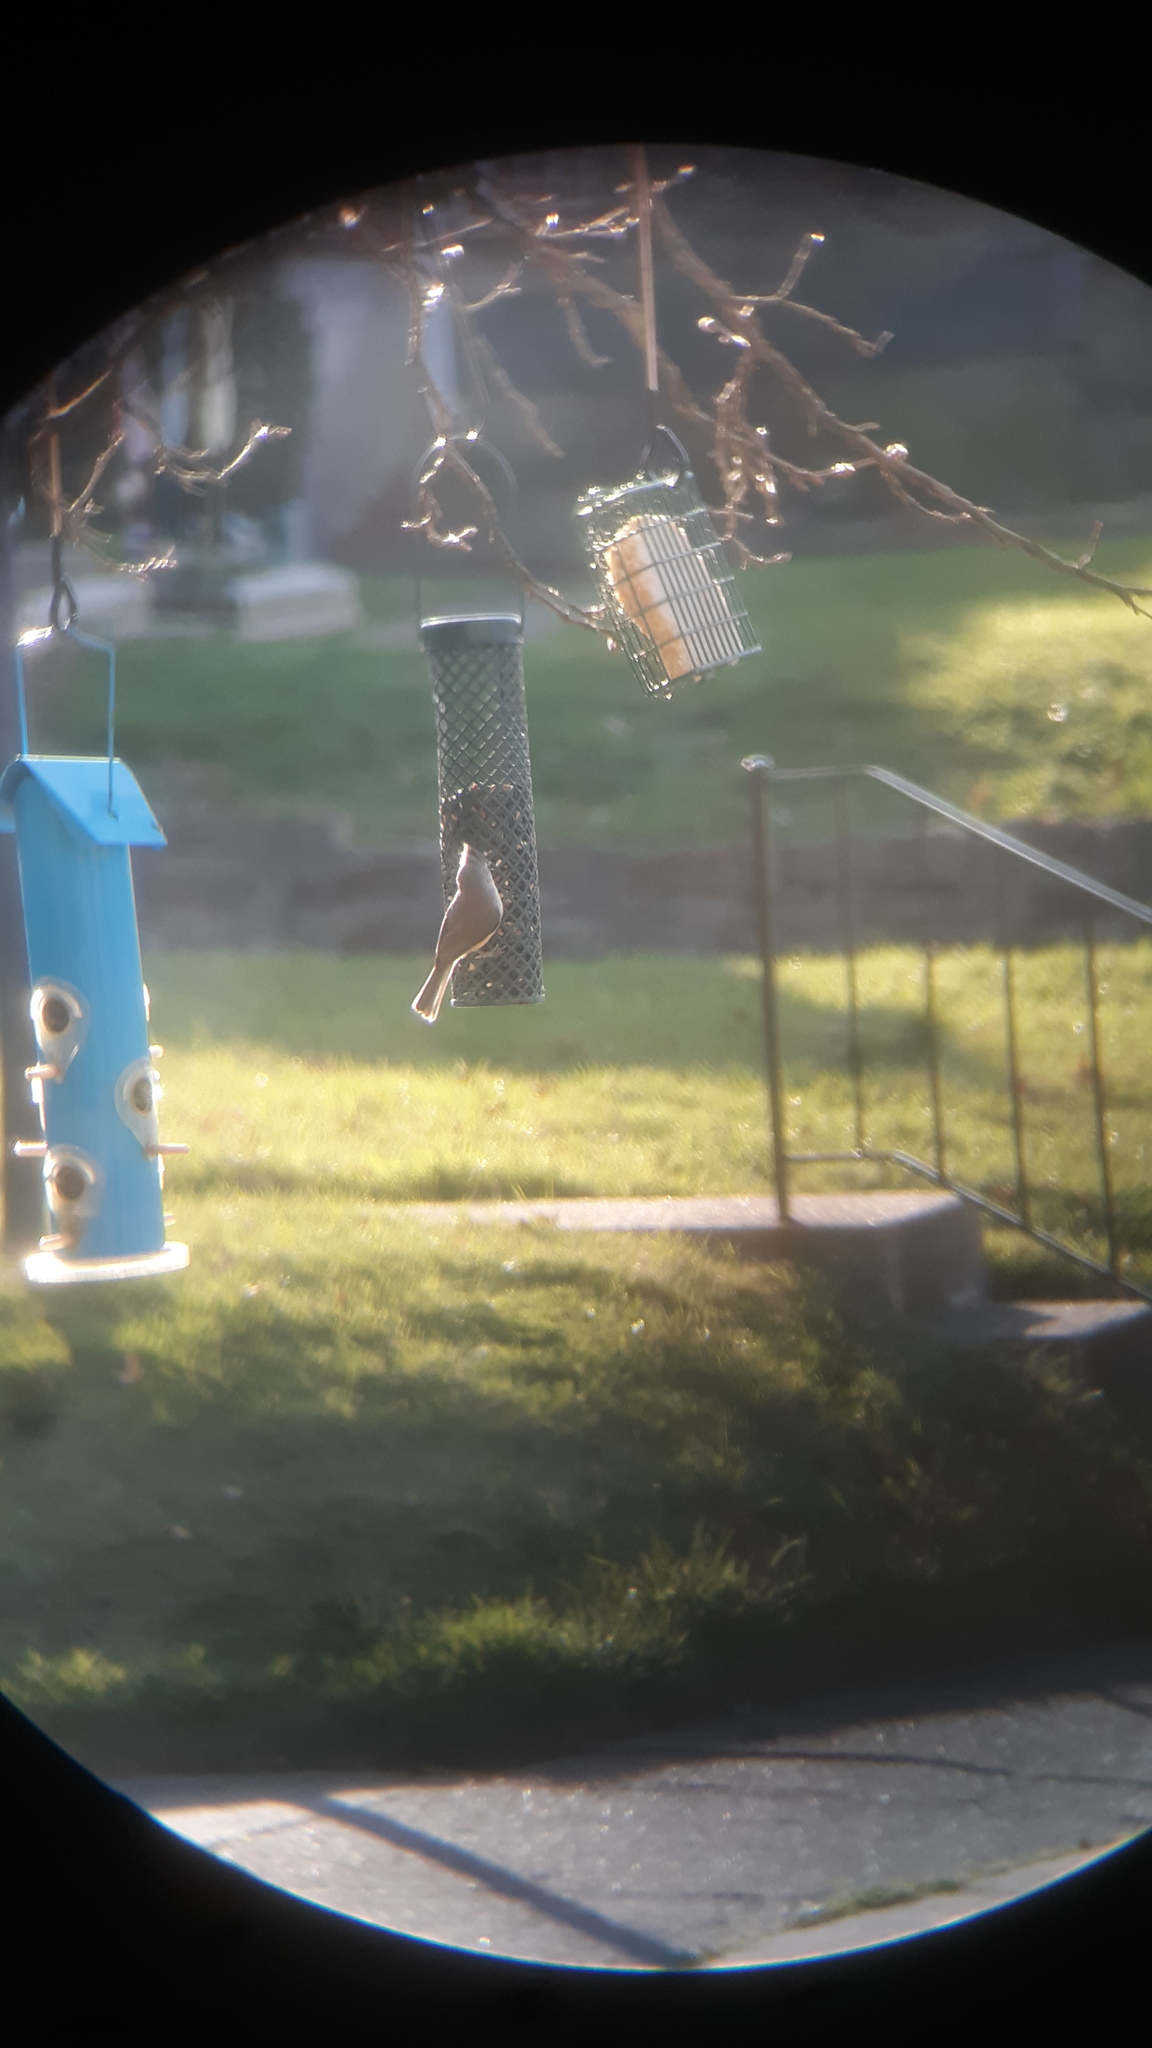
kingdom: Animalia
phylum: Chordata
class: Aves
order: Passeriformes
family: Paridae
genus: Baeolophus
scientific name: Baeolophus bicolor
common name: Tufted titmouse
